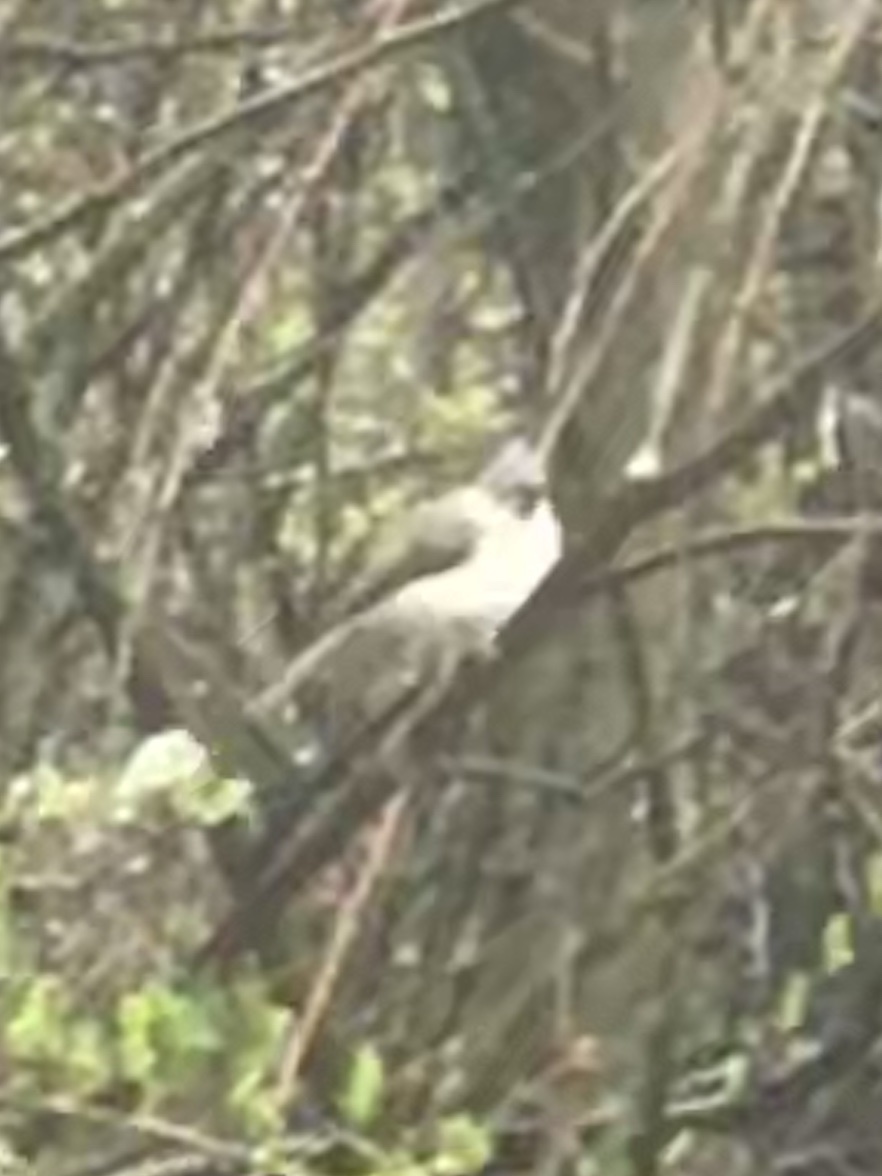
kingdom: Animalia
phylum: Chordata
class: Aves
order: Passeriformes
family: Paridae
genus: Baeolophus
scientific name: Baeolophus bicolor
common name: Tufted titmouse
